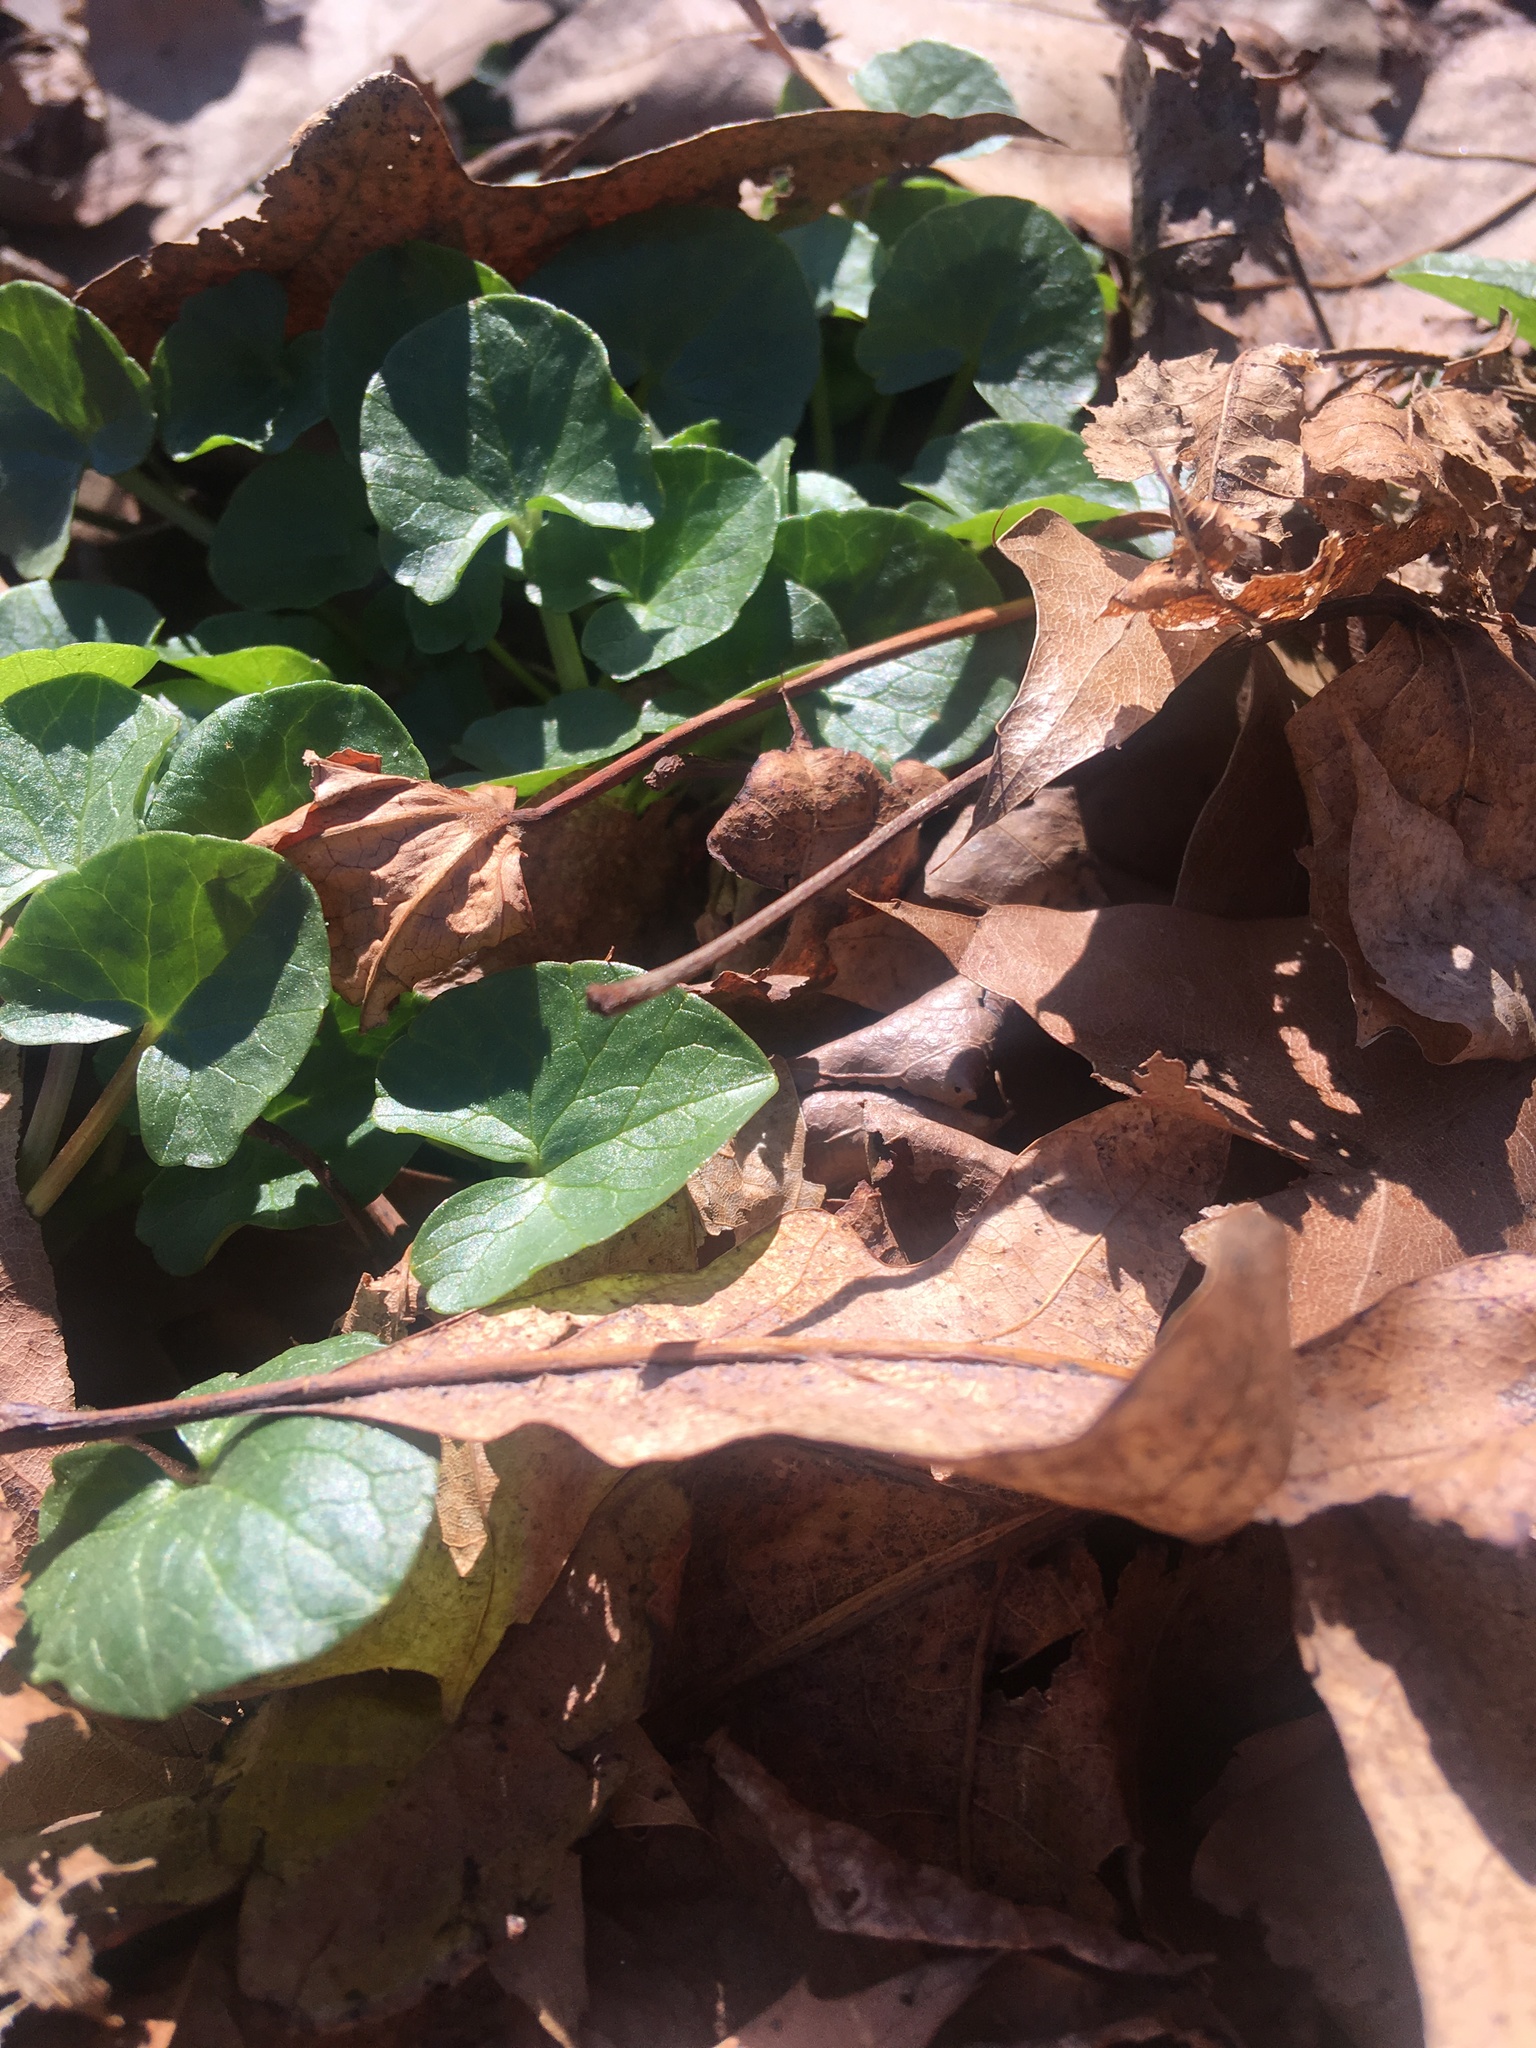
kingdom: Plantae
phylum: Tracheophyta
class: Magnoliopsida
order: Ranunculales
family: Ranunculaceae
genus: Ficaria
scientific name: Ficaria verna
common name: Lesser celandine
